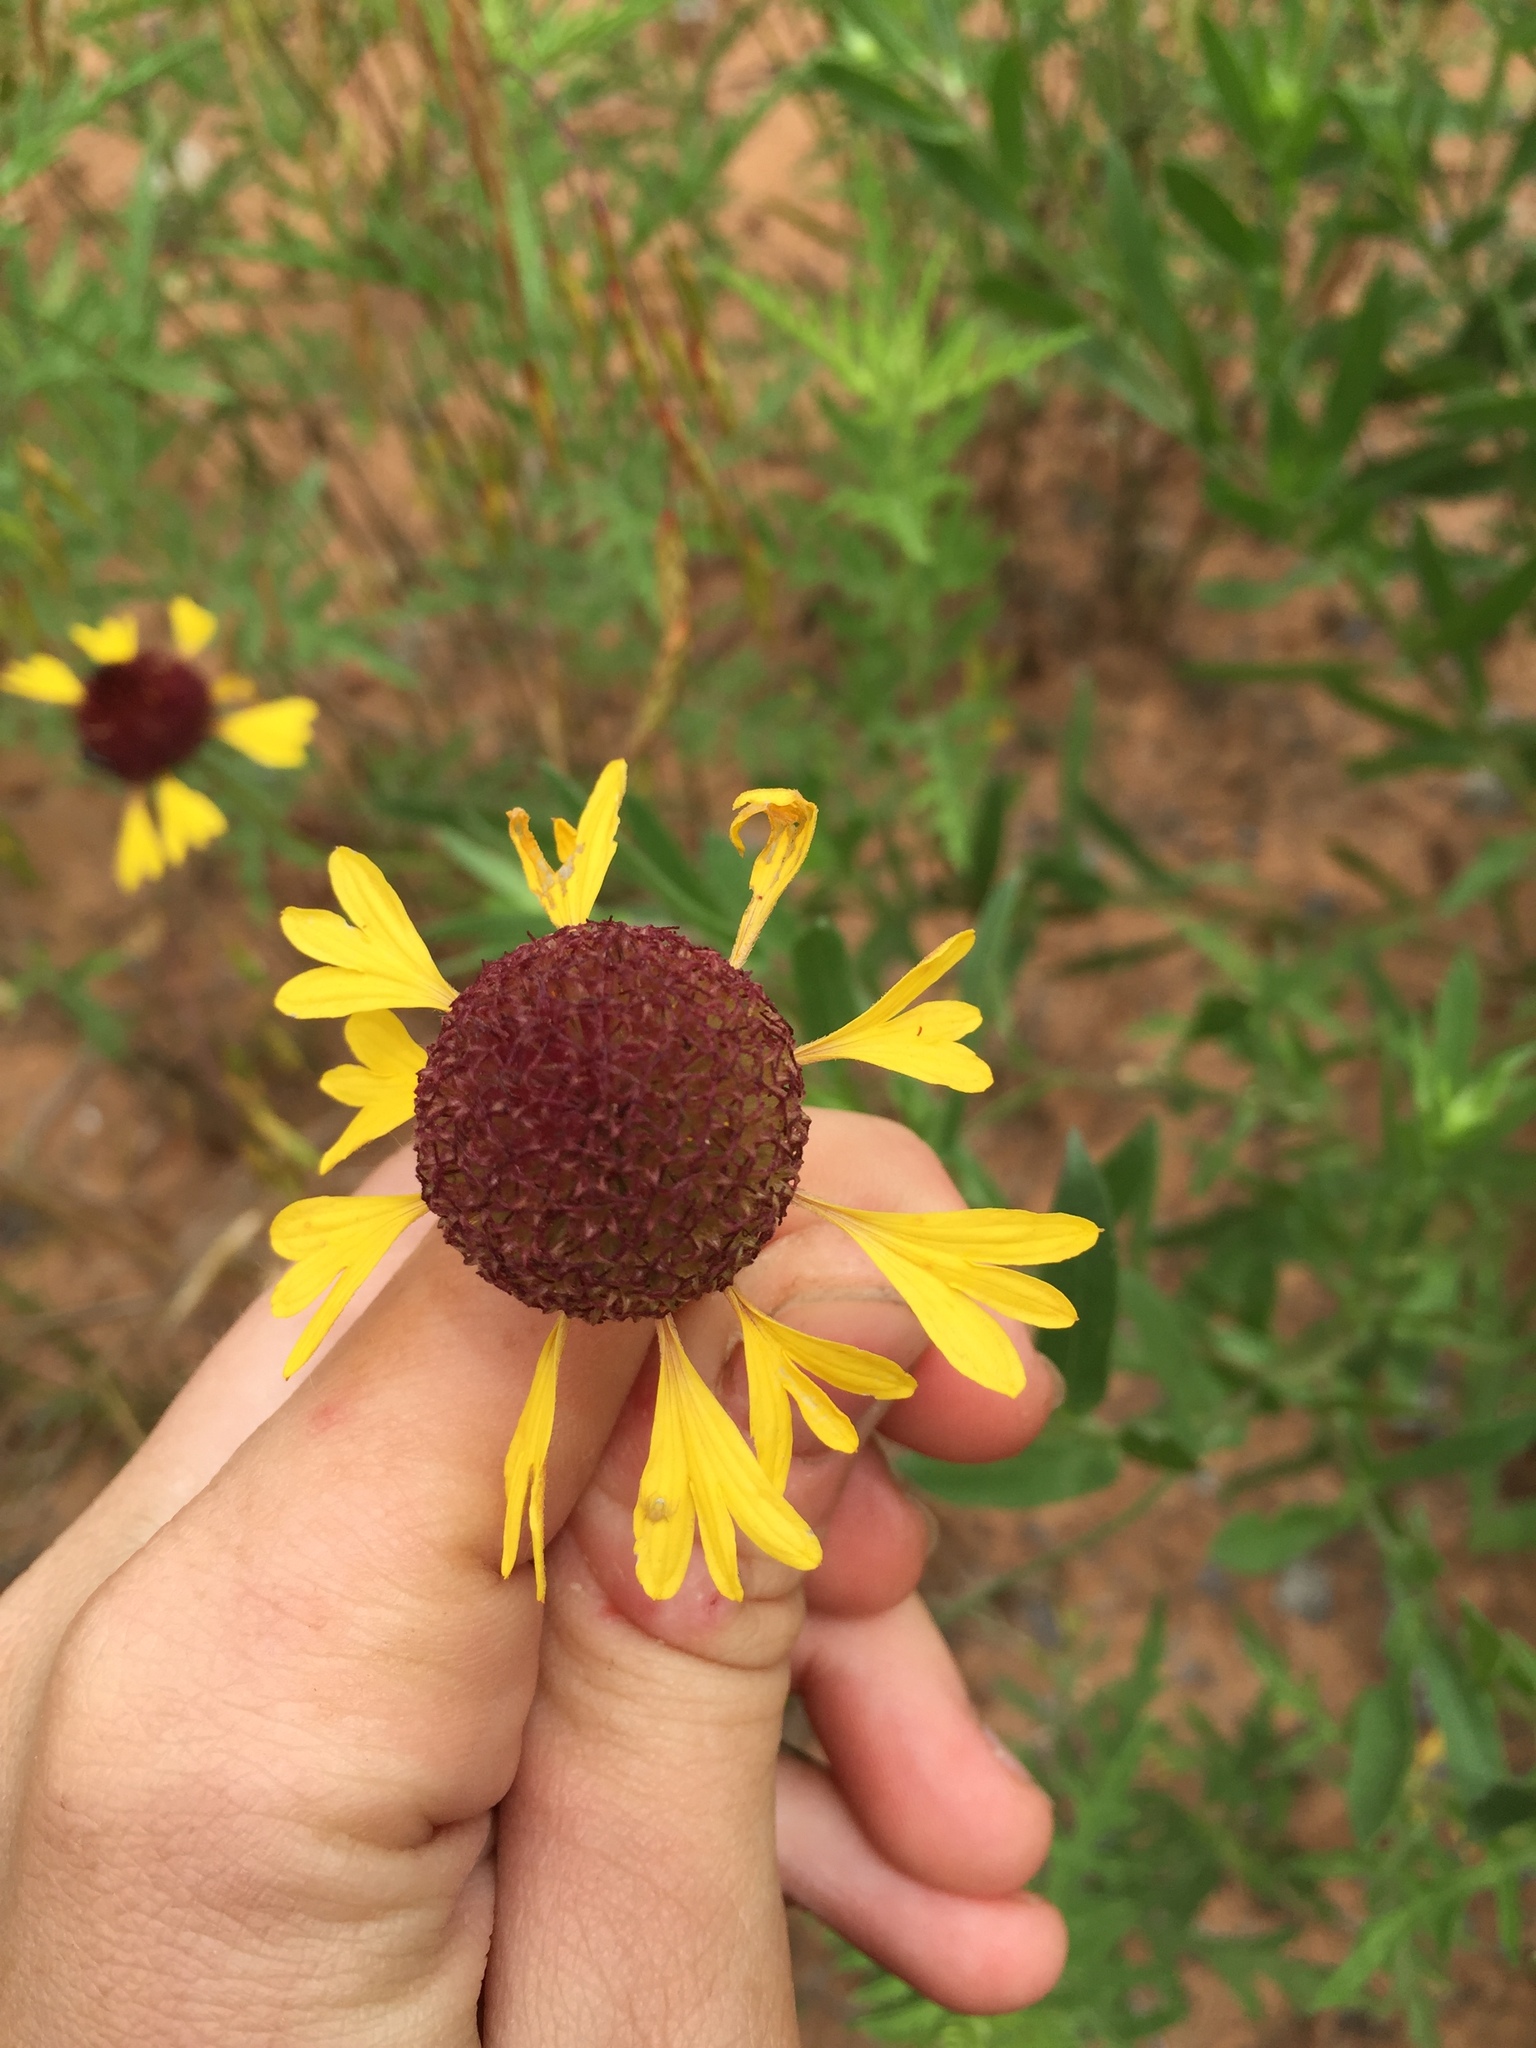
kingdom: Plantae
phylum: Tracheophyta
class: Magnoliopsida
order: Asterales
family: Asteraceae
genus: Gaillardia
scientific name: Gaillardia aestivalis
